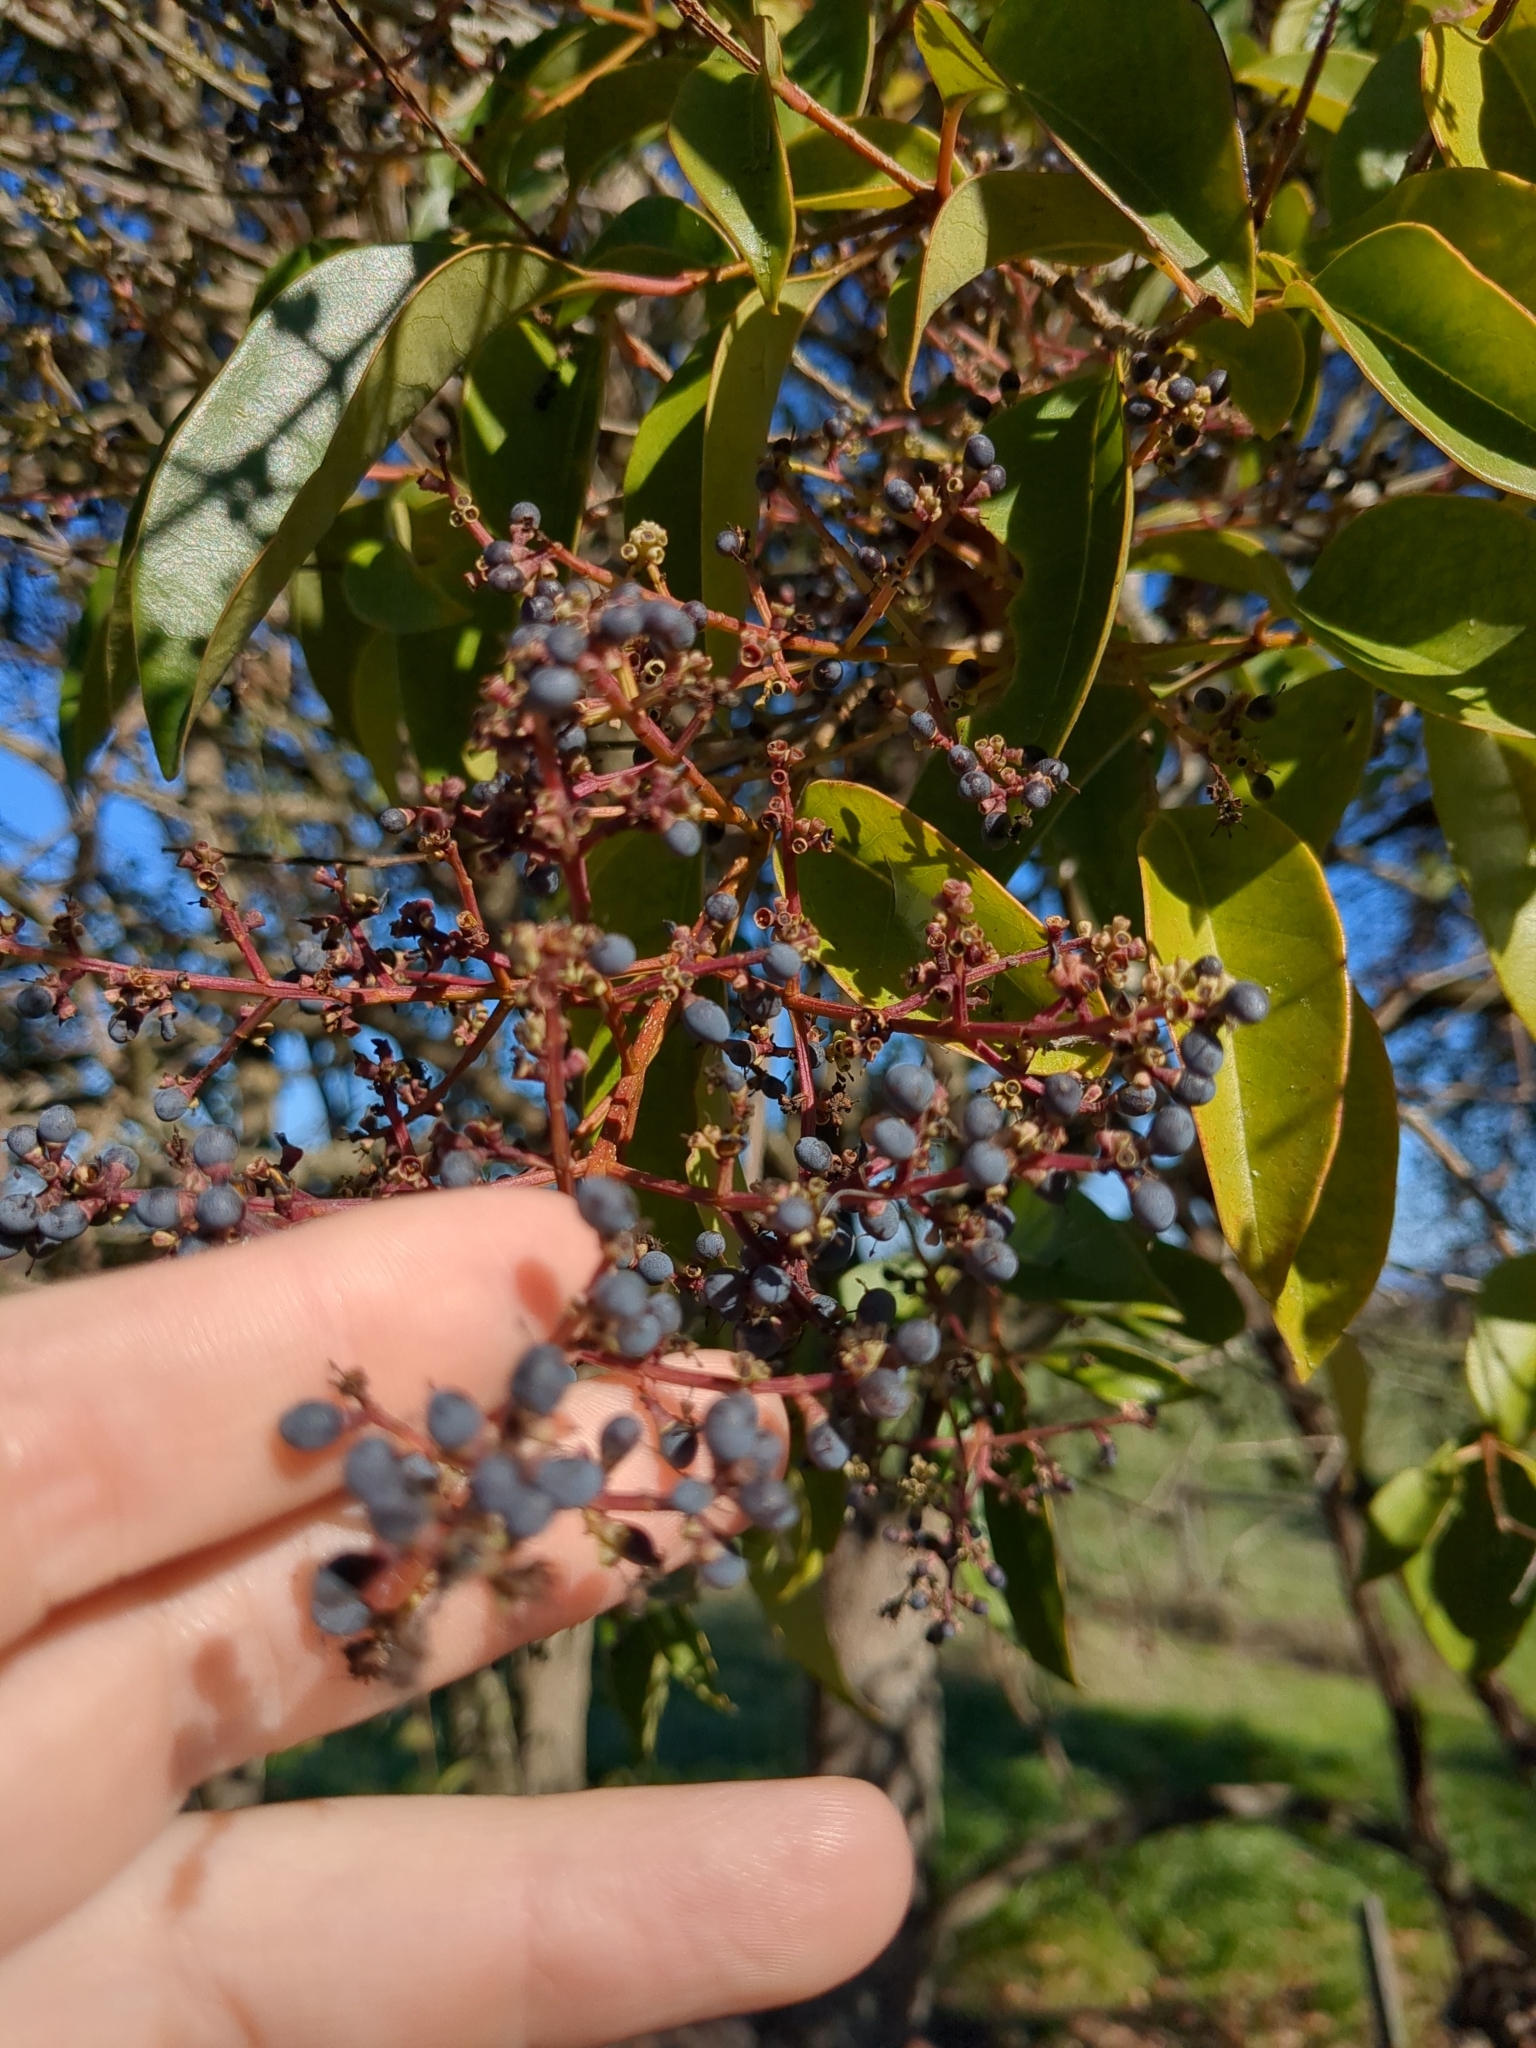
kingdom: Plantae
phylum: Tracheophyta
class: Magnoliopsida
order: Lamiales
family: Oleaceae
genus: Ligustrum
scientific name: Ligustrum lucidum
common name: Glossy privet
